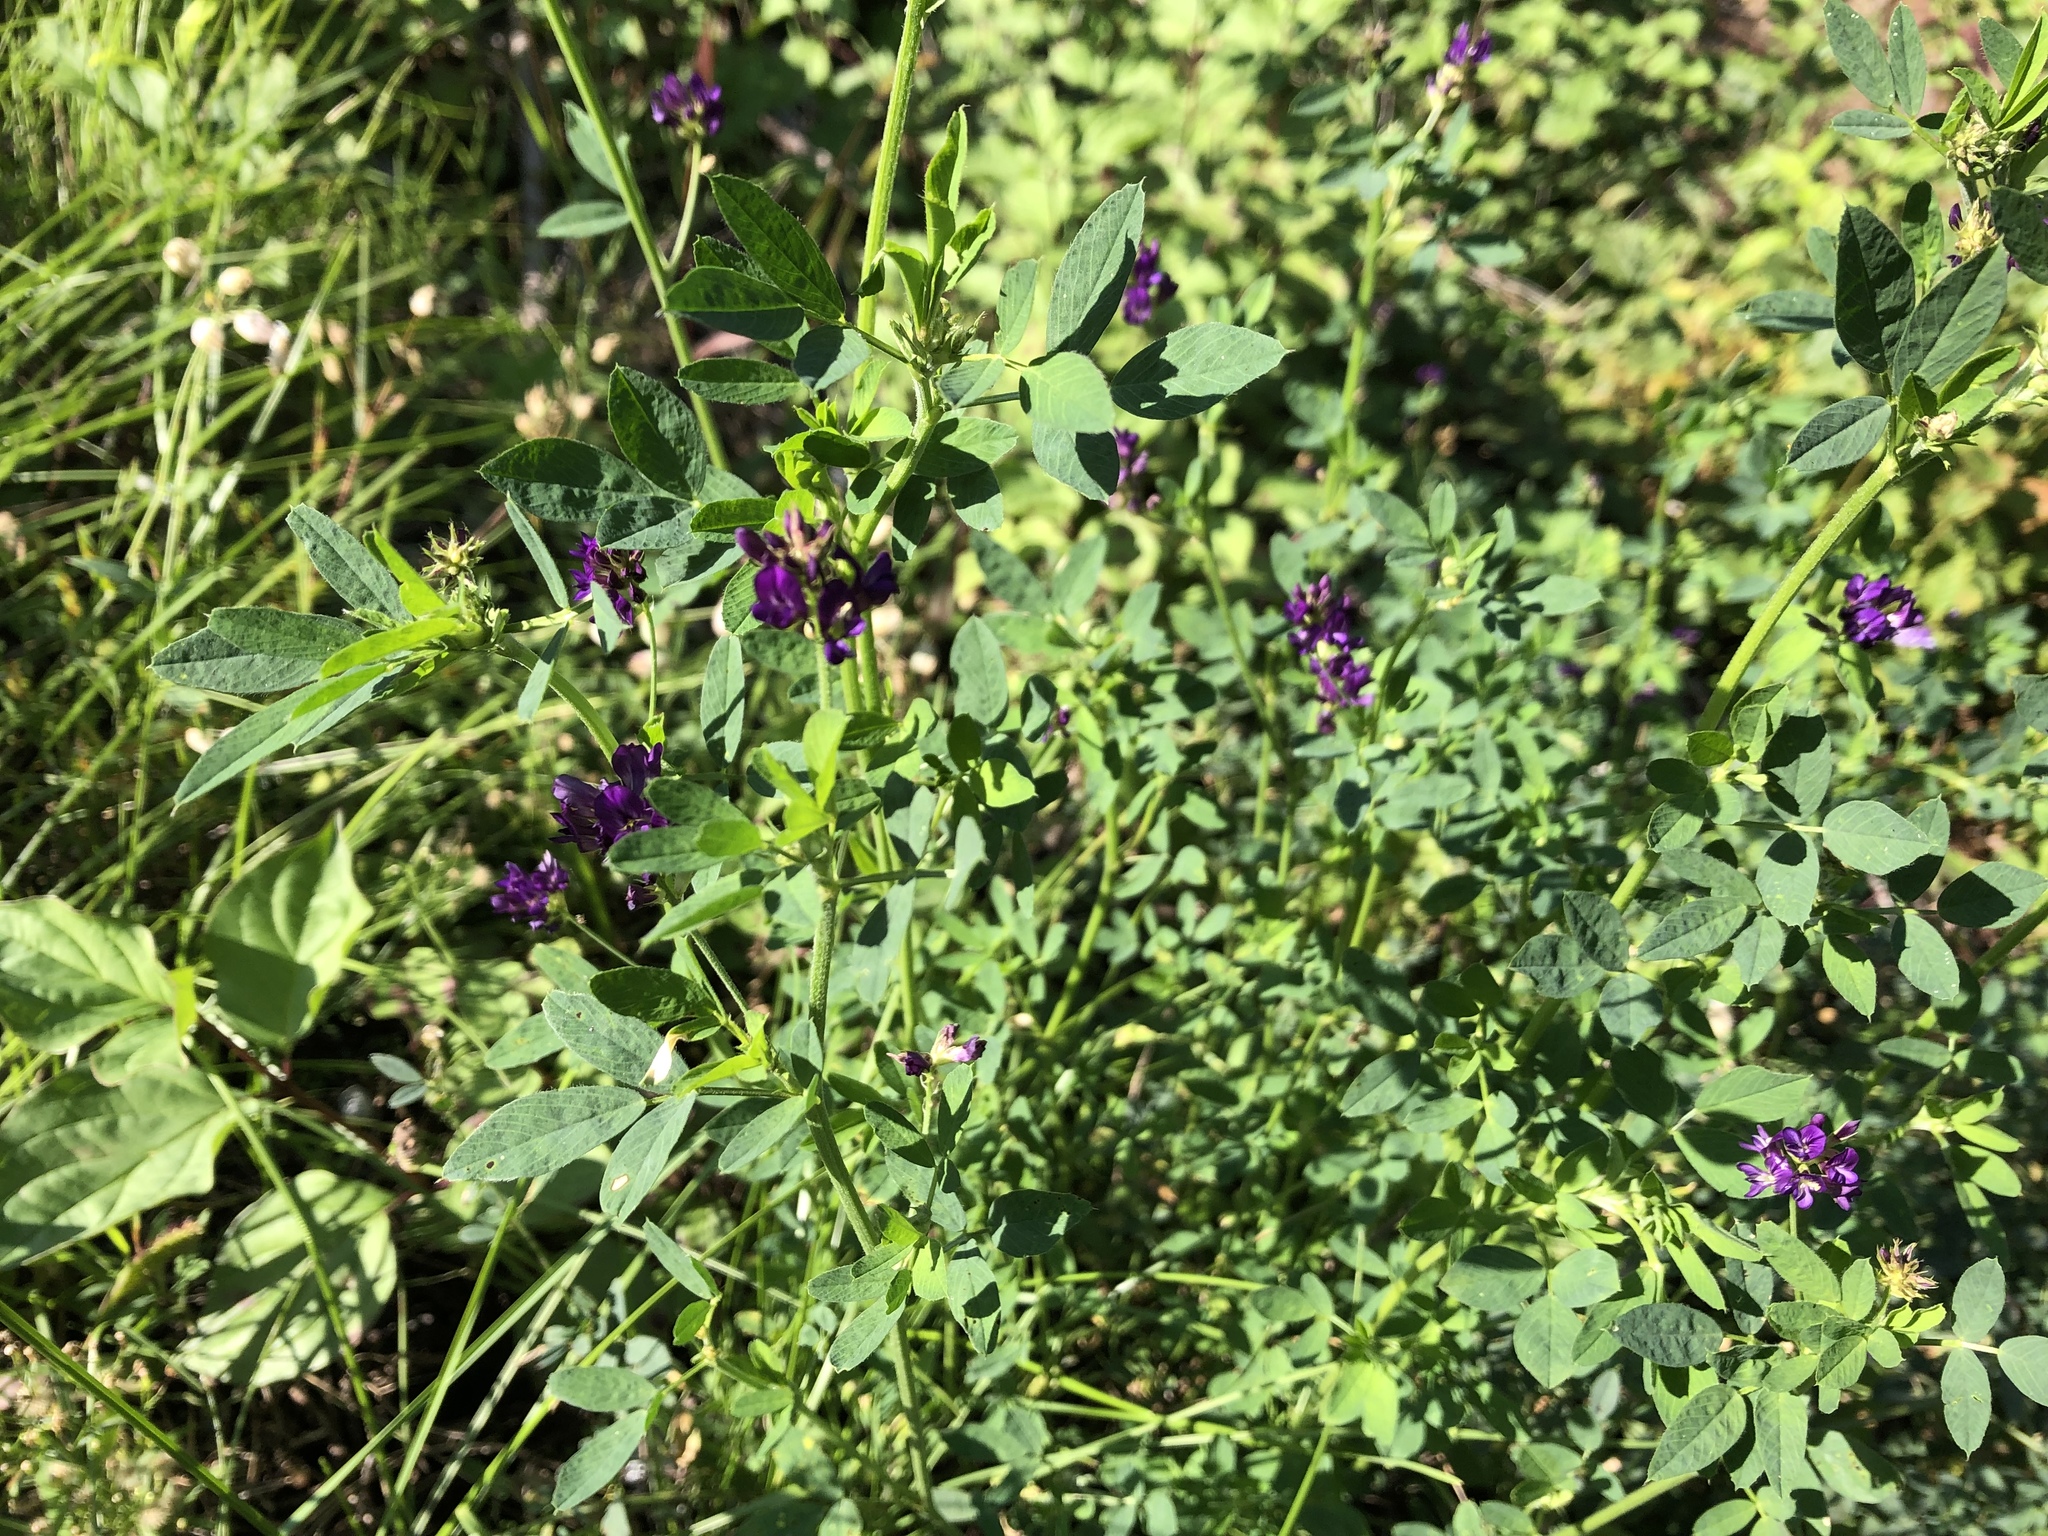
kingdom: Plantae
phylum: Tracheophyta
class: Magnoliopsida
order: Fabales
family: Fabaceae
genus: Medicago
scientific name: Medicago sativa
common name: Alfalfa
